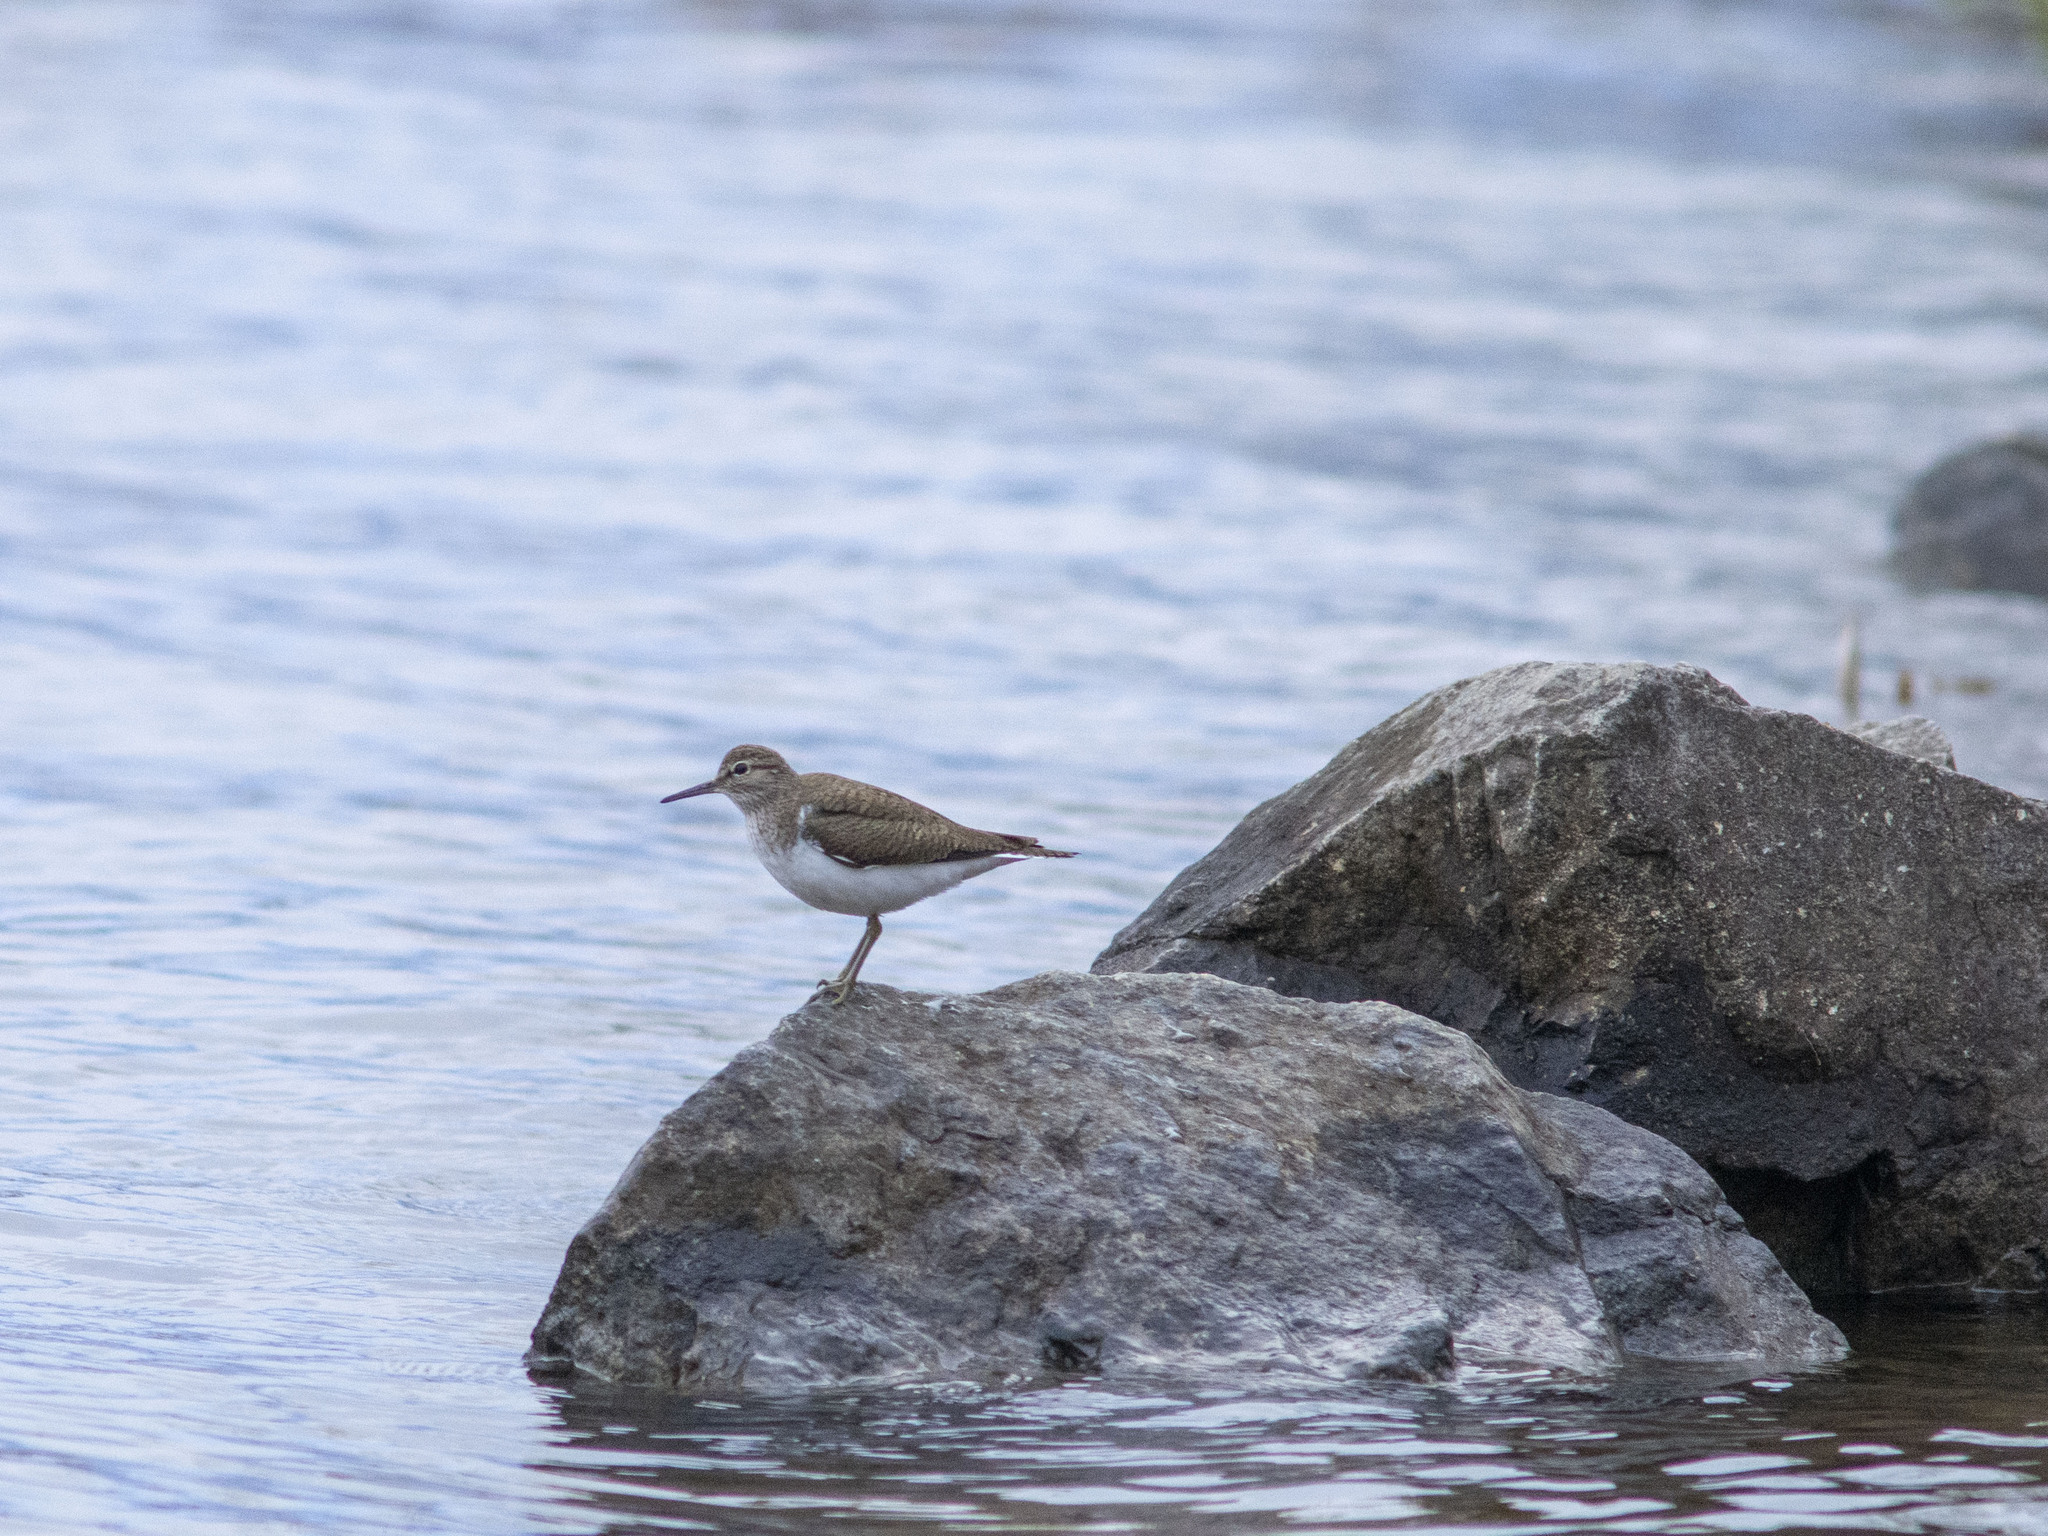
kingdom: Animalia
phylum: Chordata
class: Aves
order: Charadriiformes
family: Scolopacidae
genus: Actitis
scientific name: Actitis hypoleucos
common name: Common sandpiper
